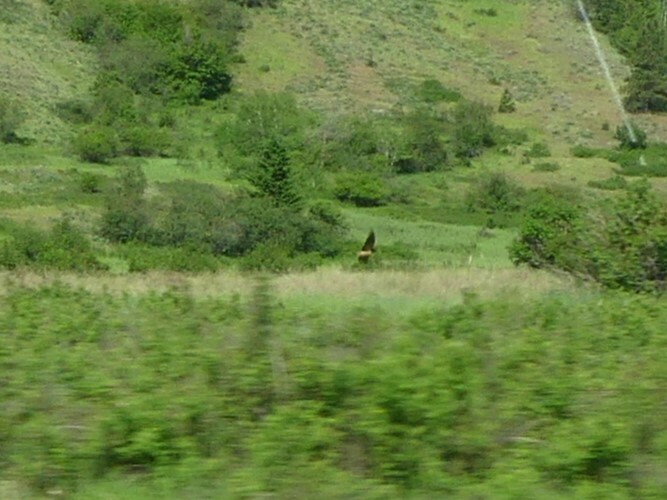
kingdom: Animalia
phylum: Chordata
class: Aves
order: Passeriformes
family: Hirundinidae
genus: Hirundo
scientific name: Hirundo rustica
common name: Barn swallow
